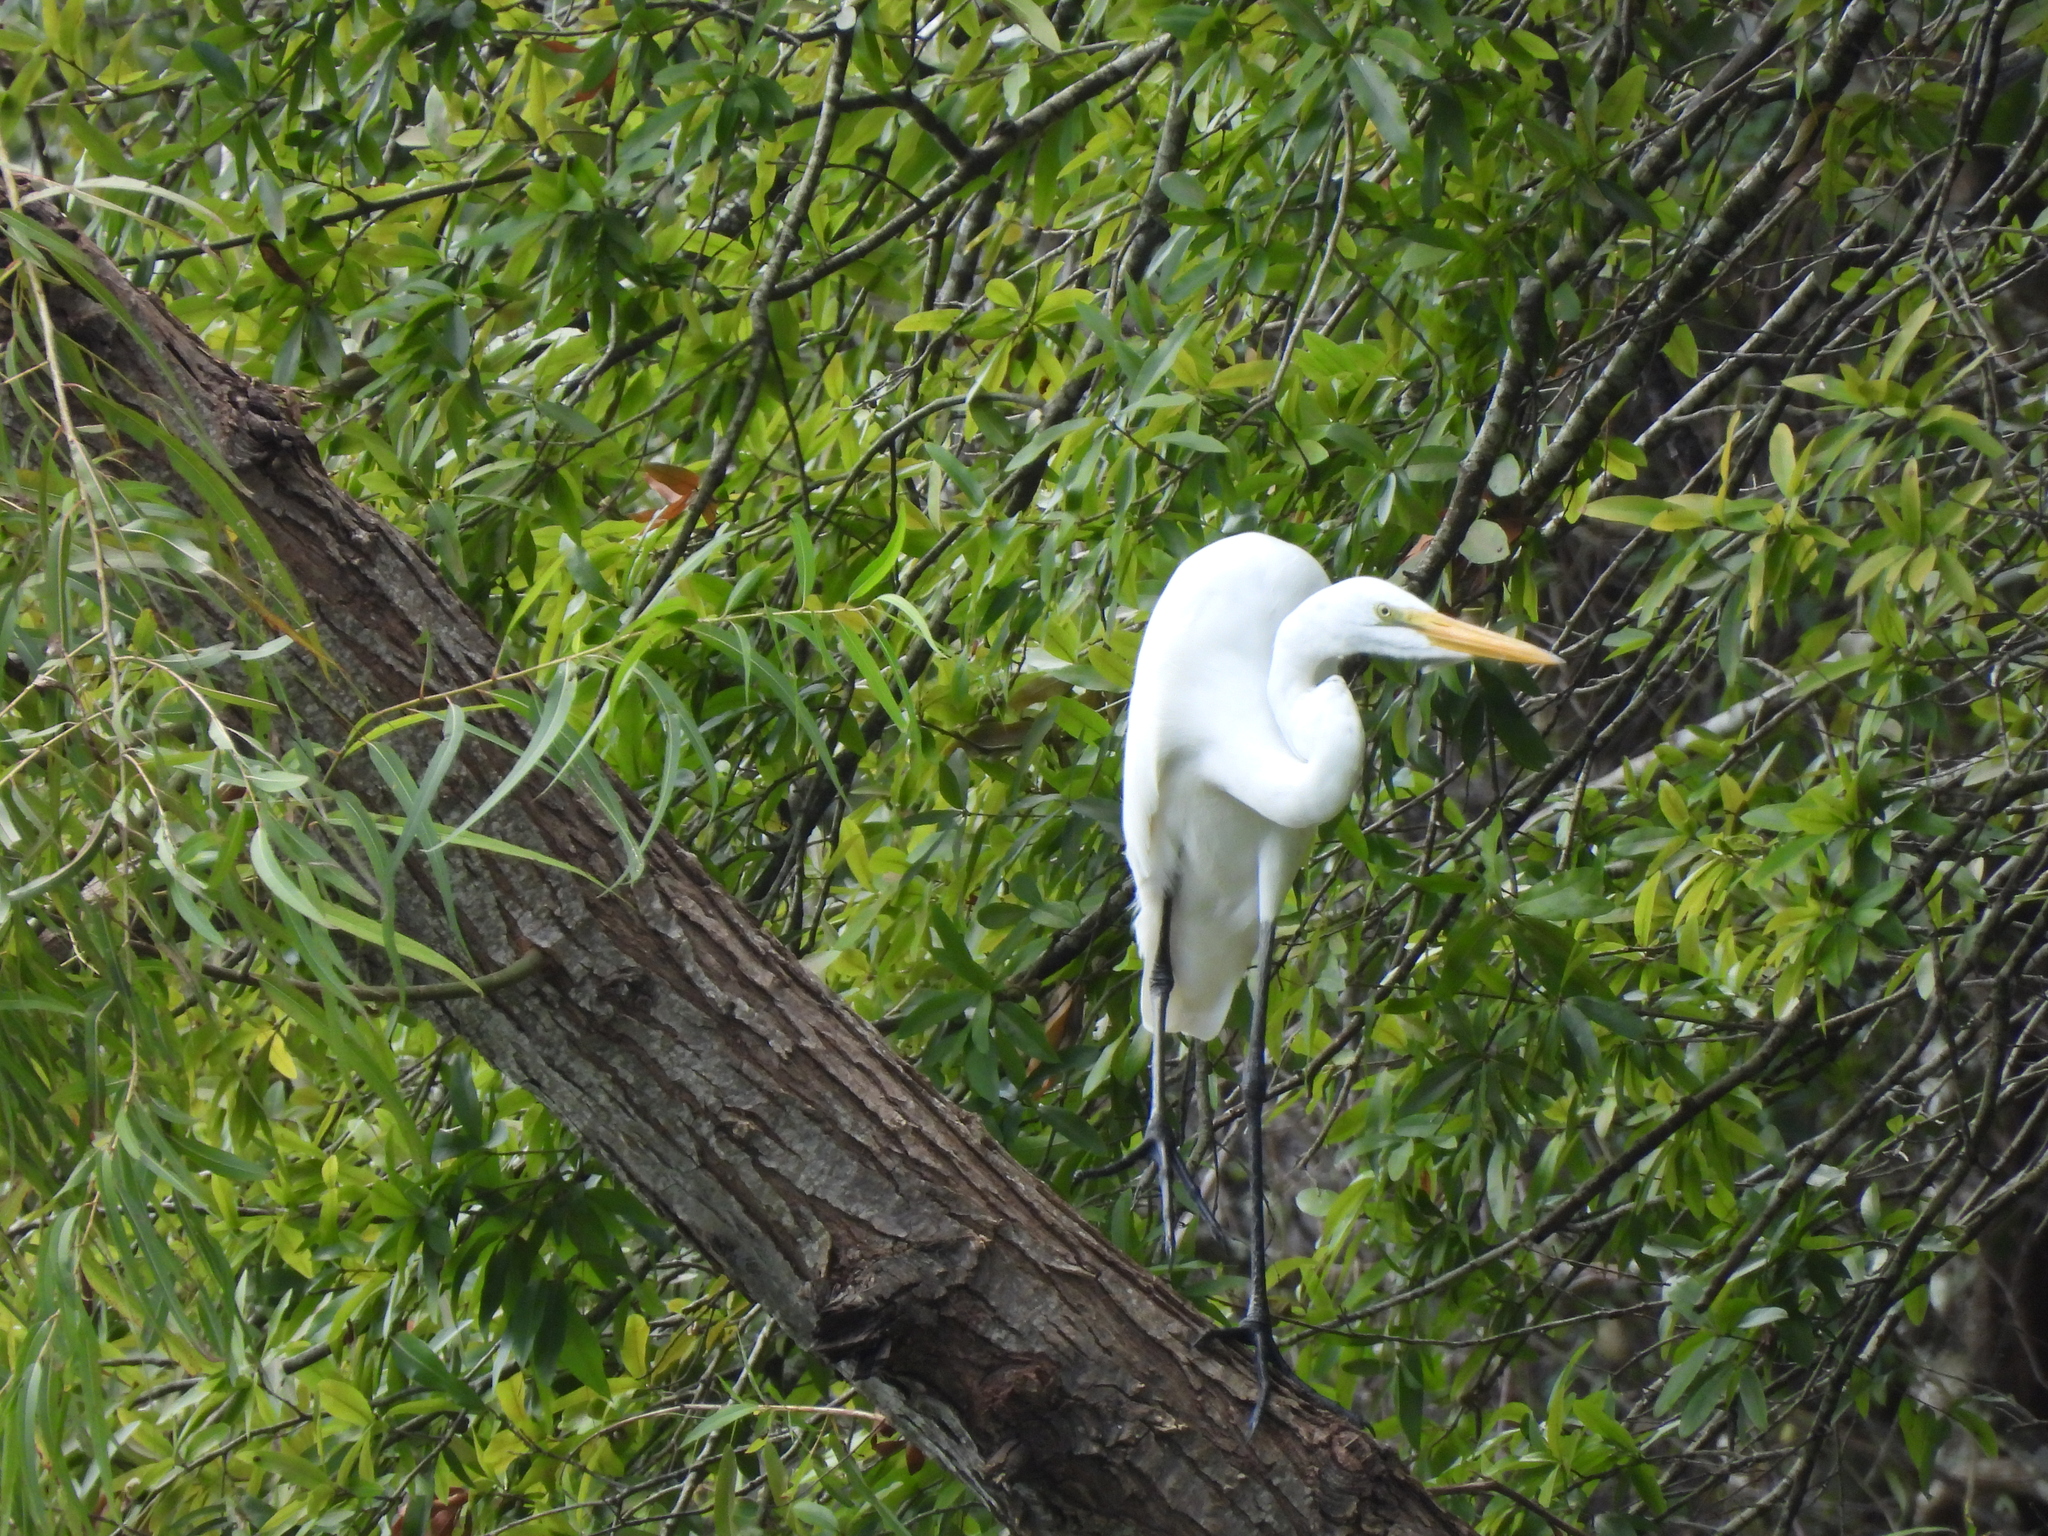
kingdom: Animalia
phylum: Chordata
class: Aves
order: Pelecaniformes
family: Ardeidae
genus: Ardea
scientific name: Ardea alba
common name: Great egret
